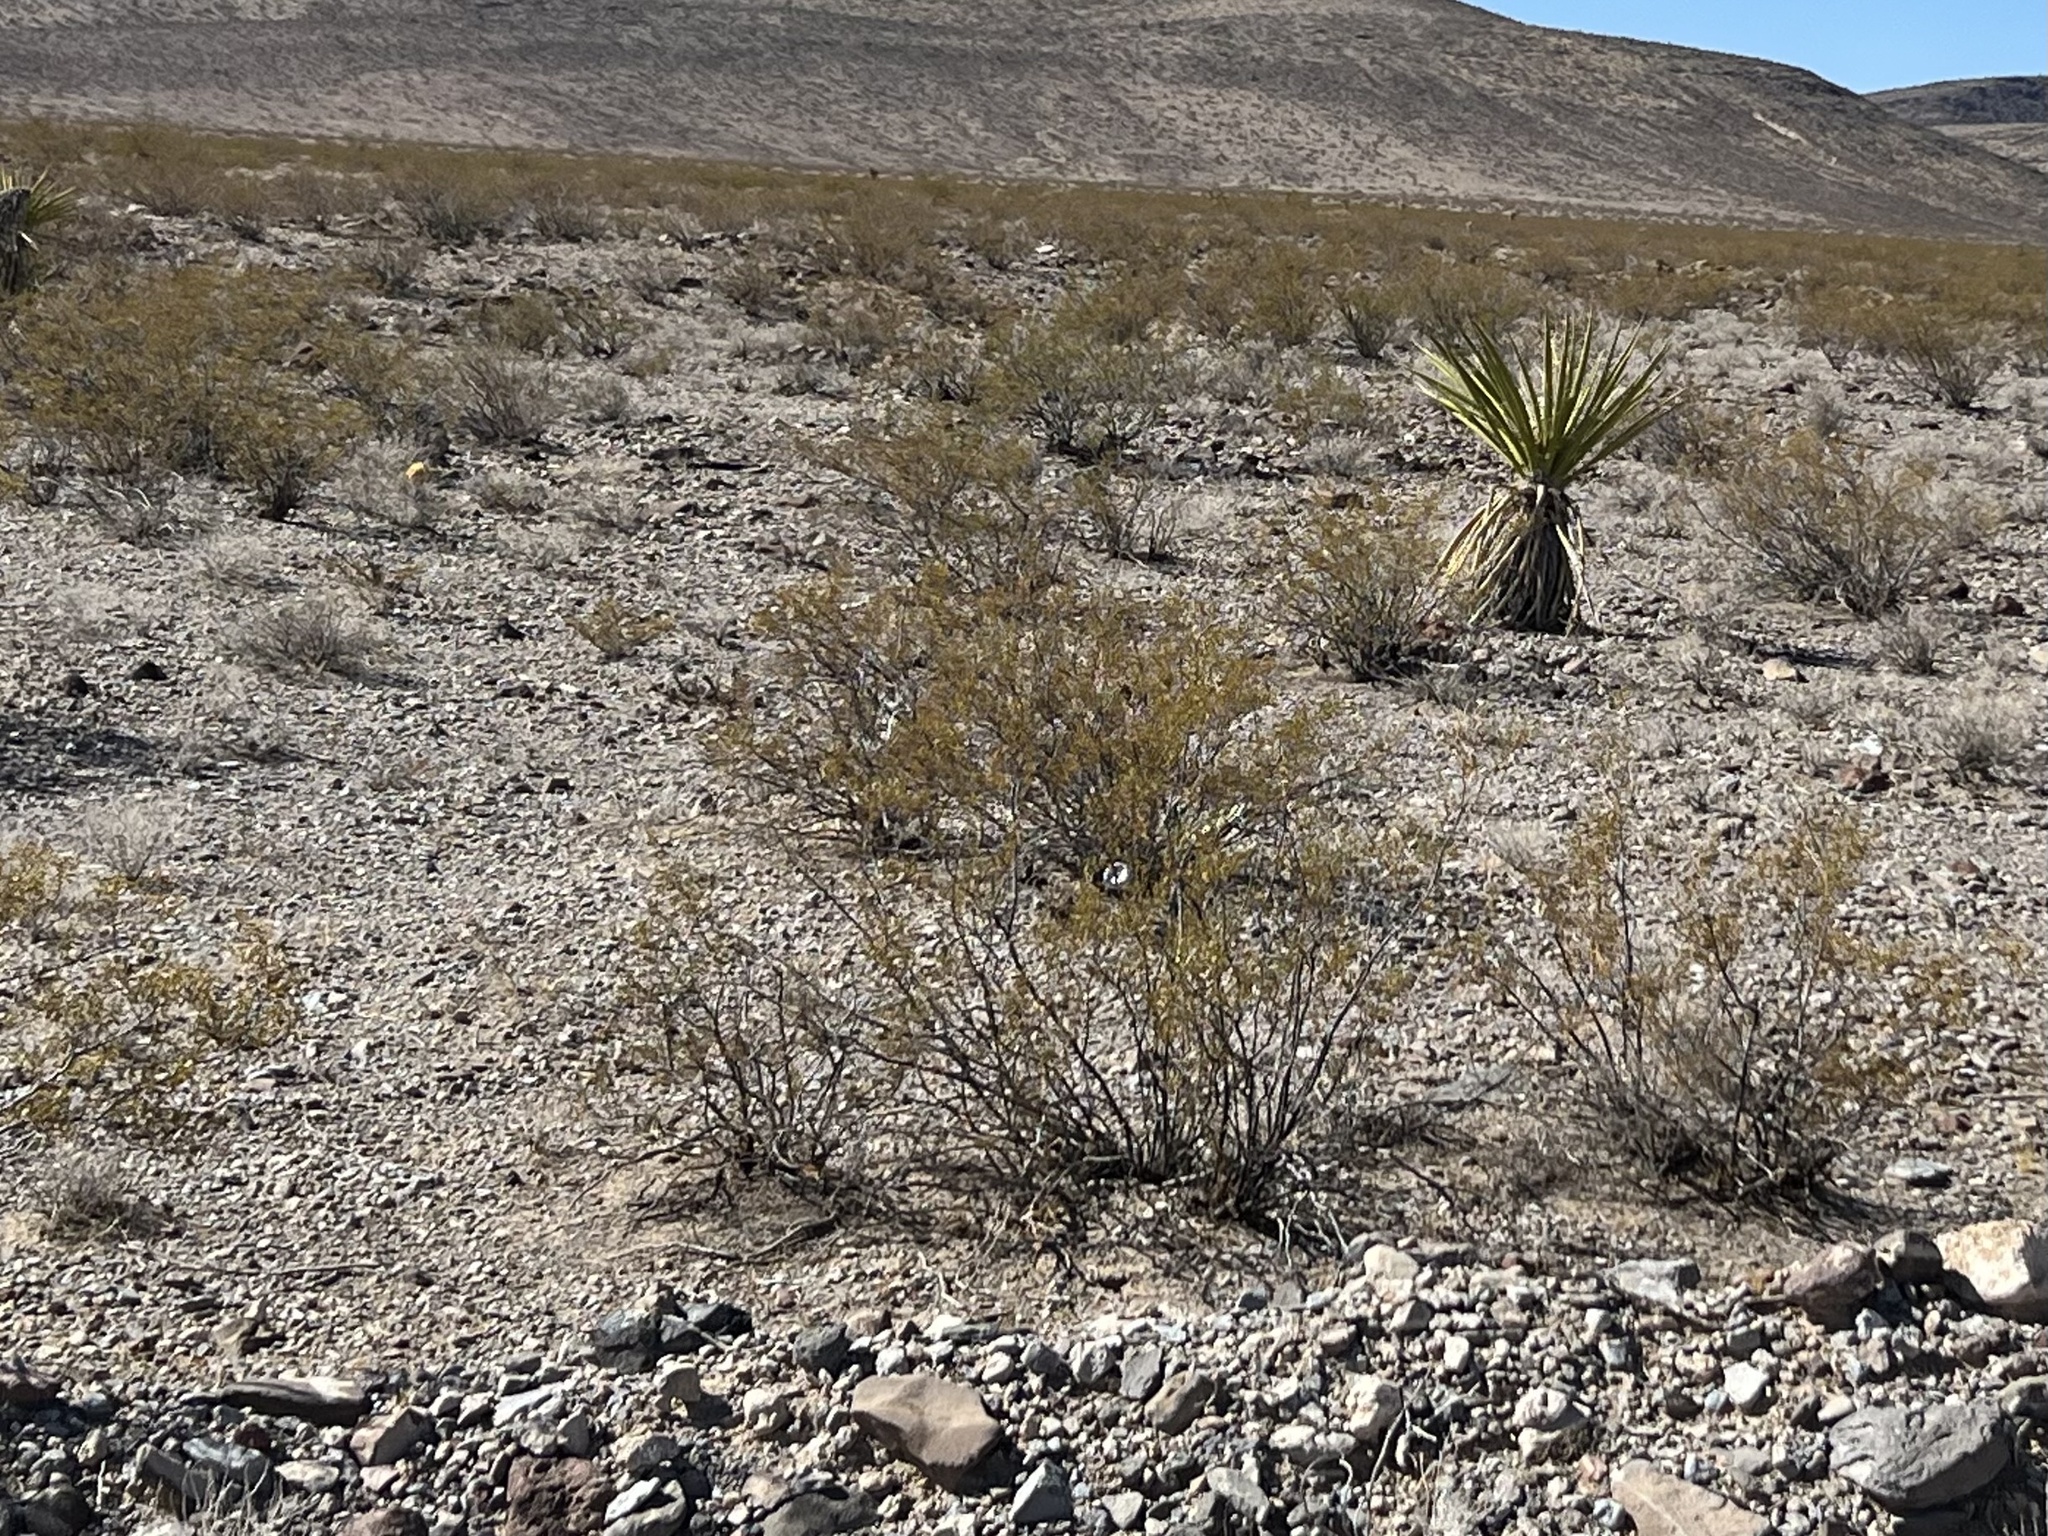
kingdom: Plantae
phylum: Tracheophyta
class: Magnoliopsida
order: Zygophyllales
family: Zygophyllaceae
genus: Larrea
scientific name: Larrea tridentata
